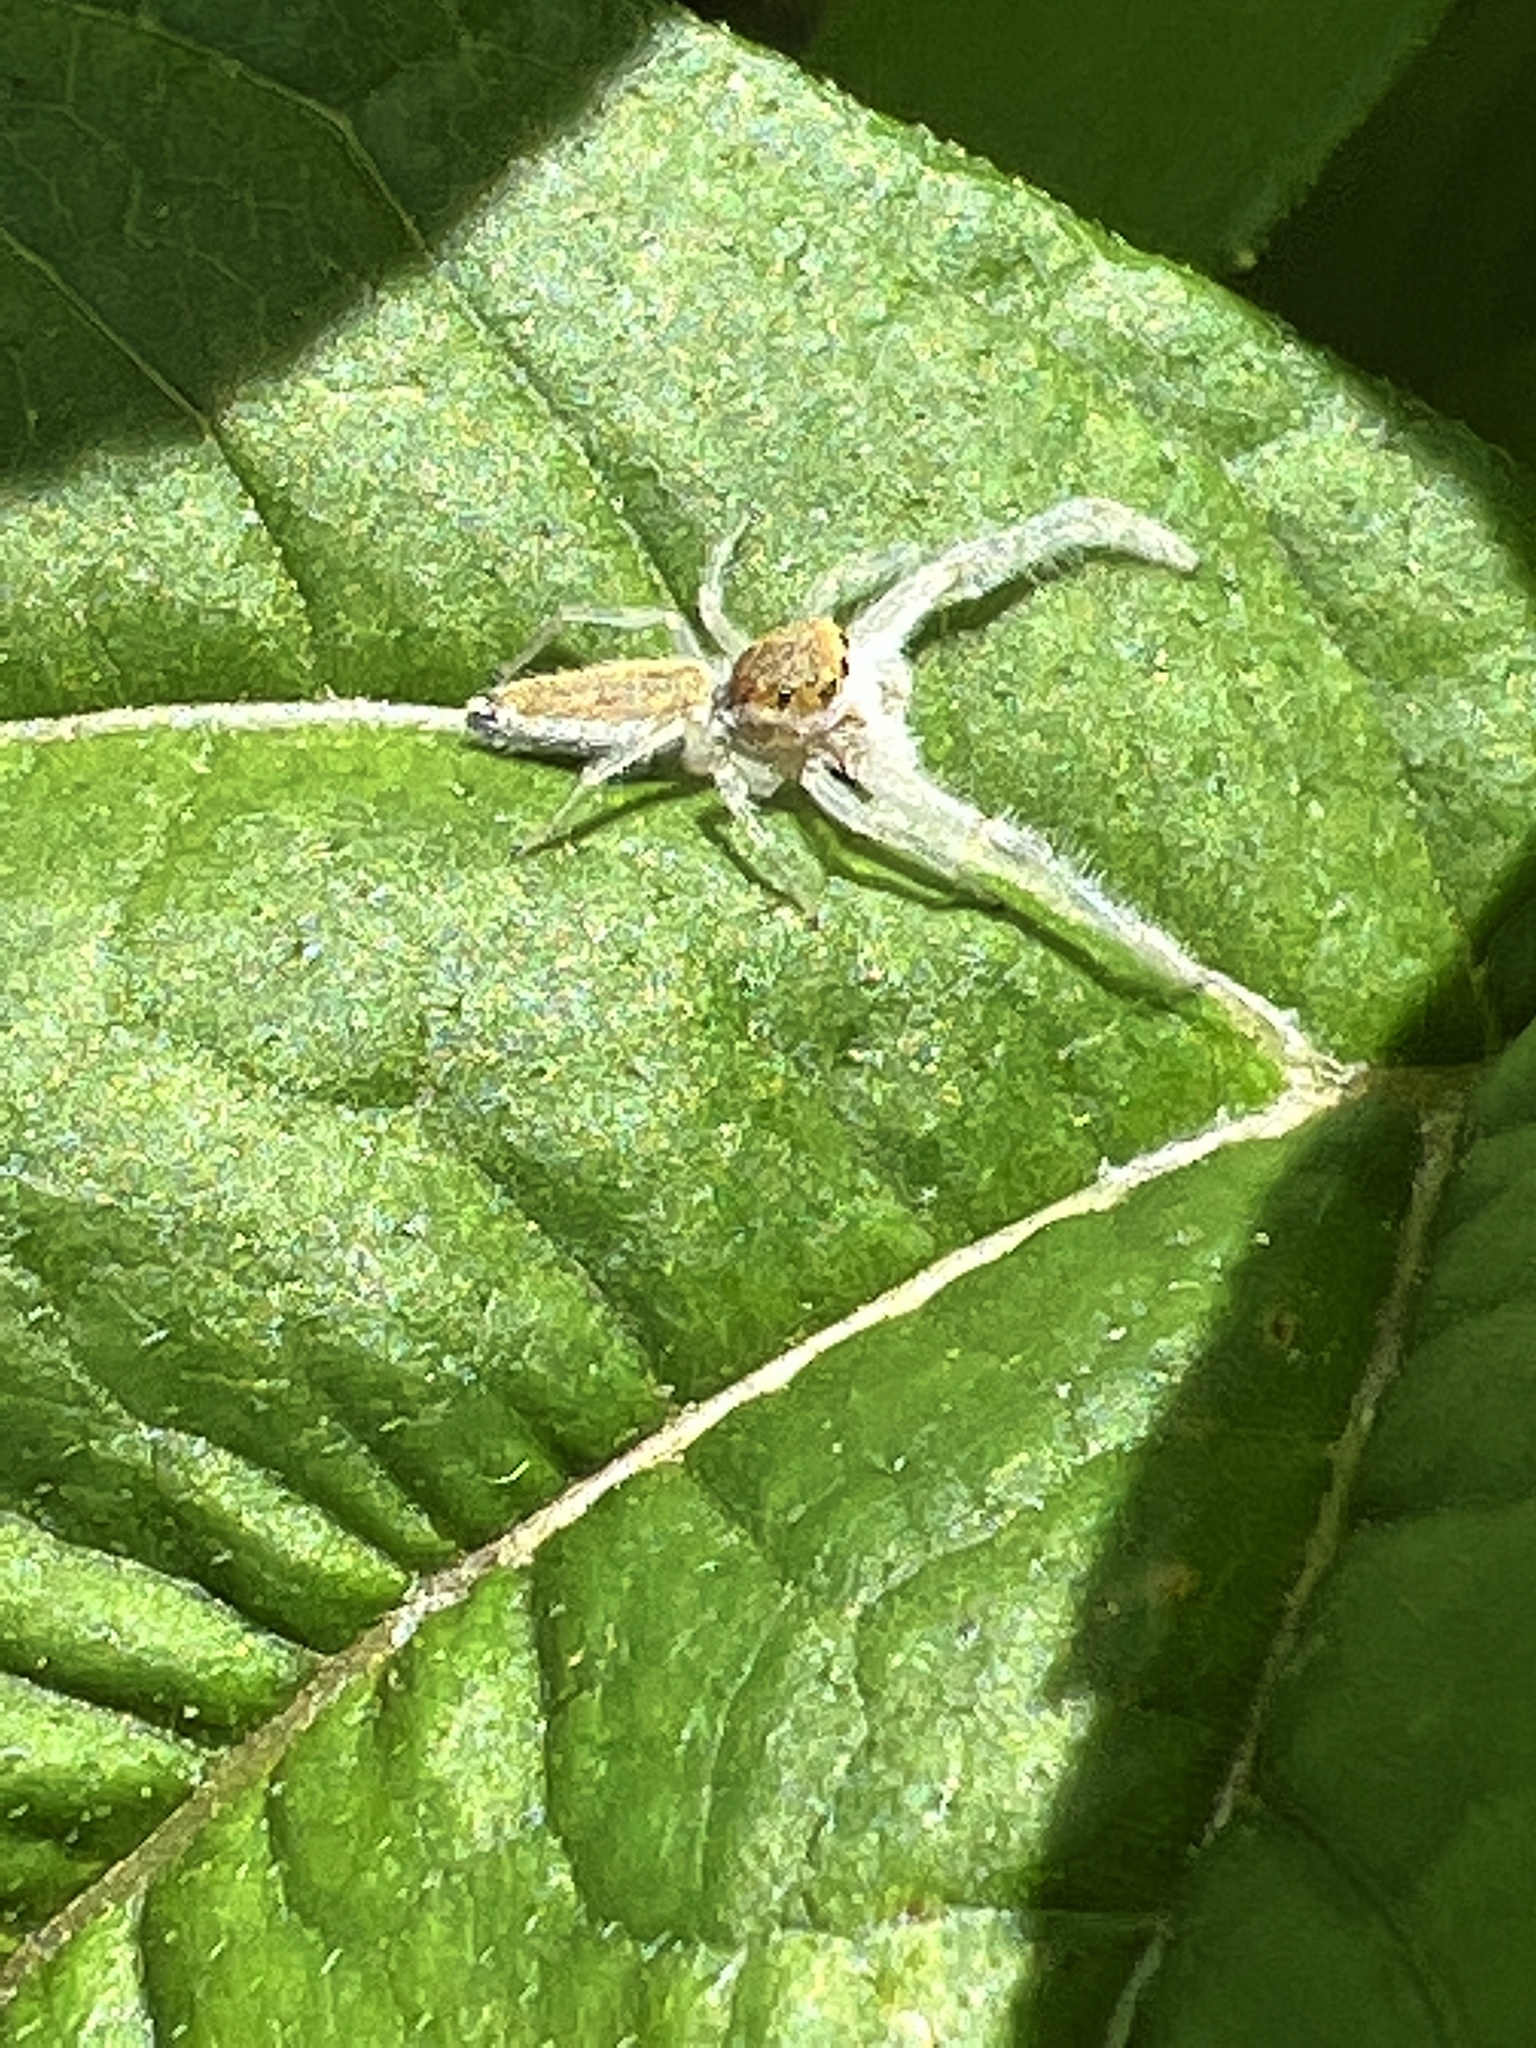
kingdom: Animalia
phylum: Arthropoda
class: Arachnida
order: Araneae
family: Salticidae
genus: Hentzia
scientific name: Hentzia mitrata
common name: White-jawed jumping spider
